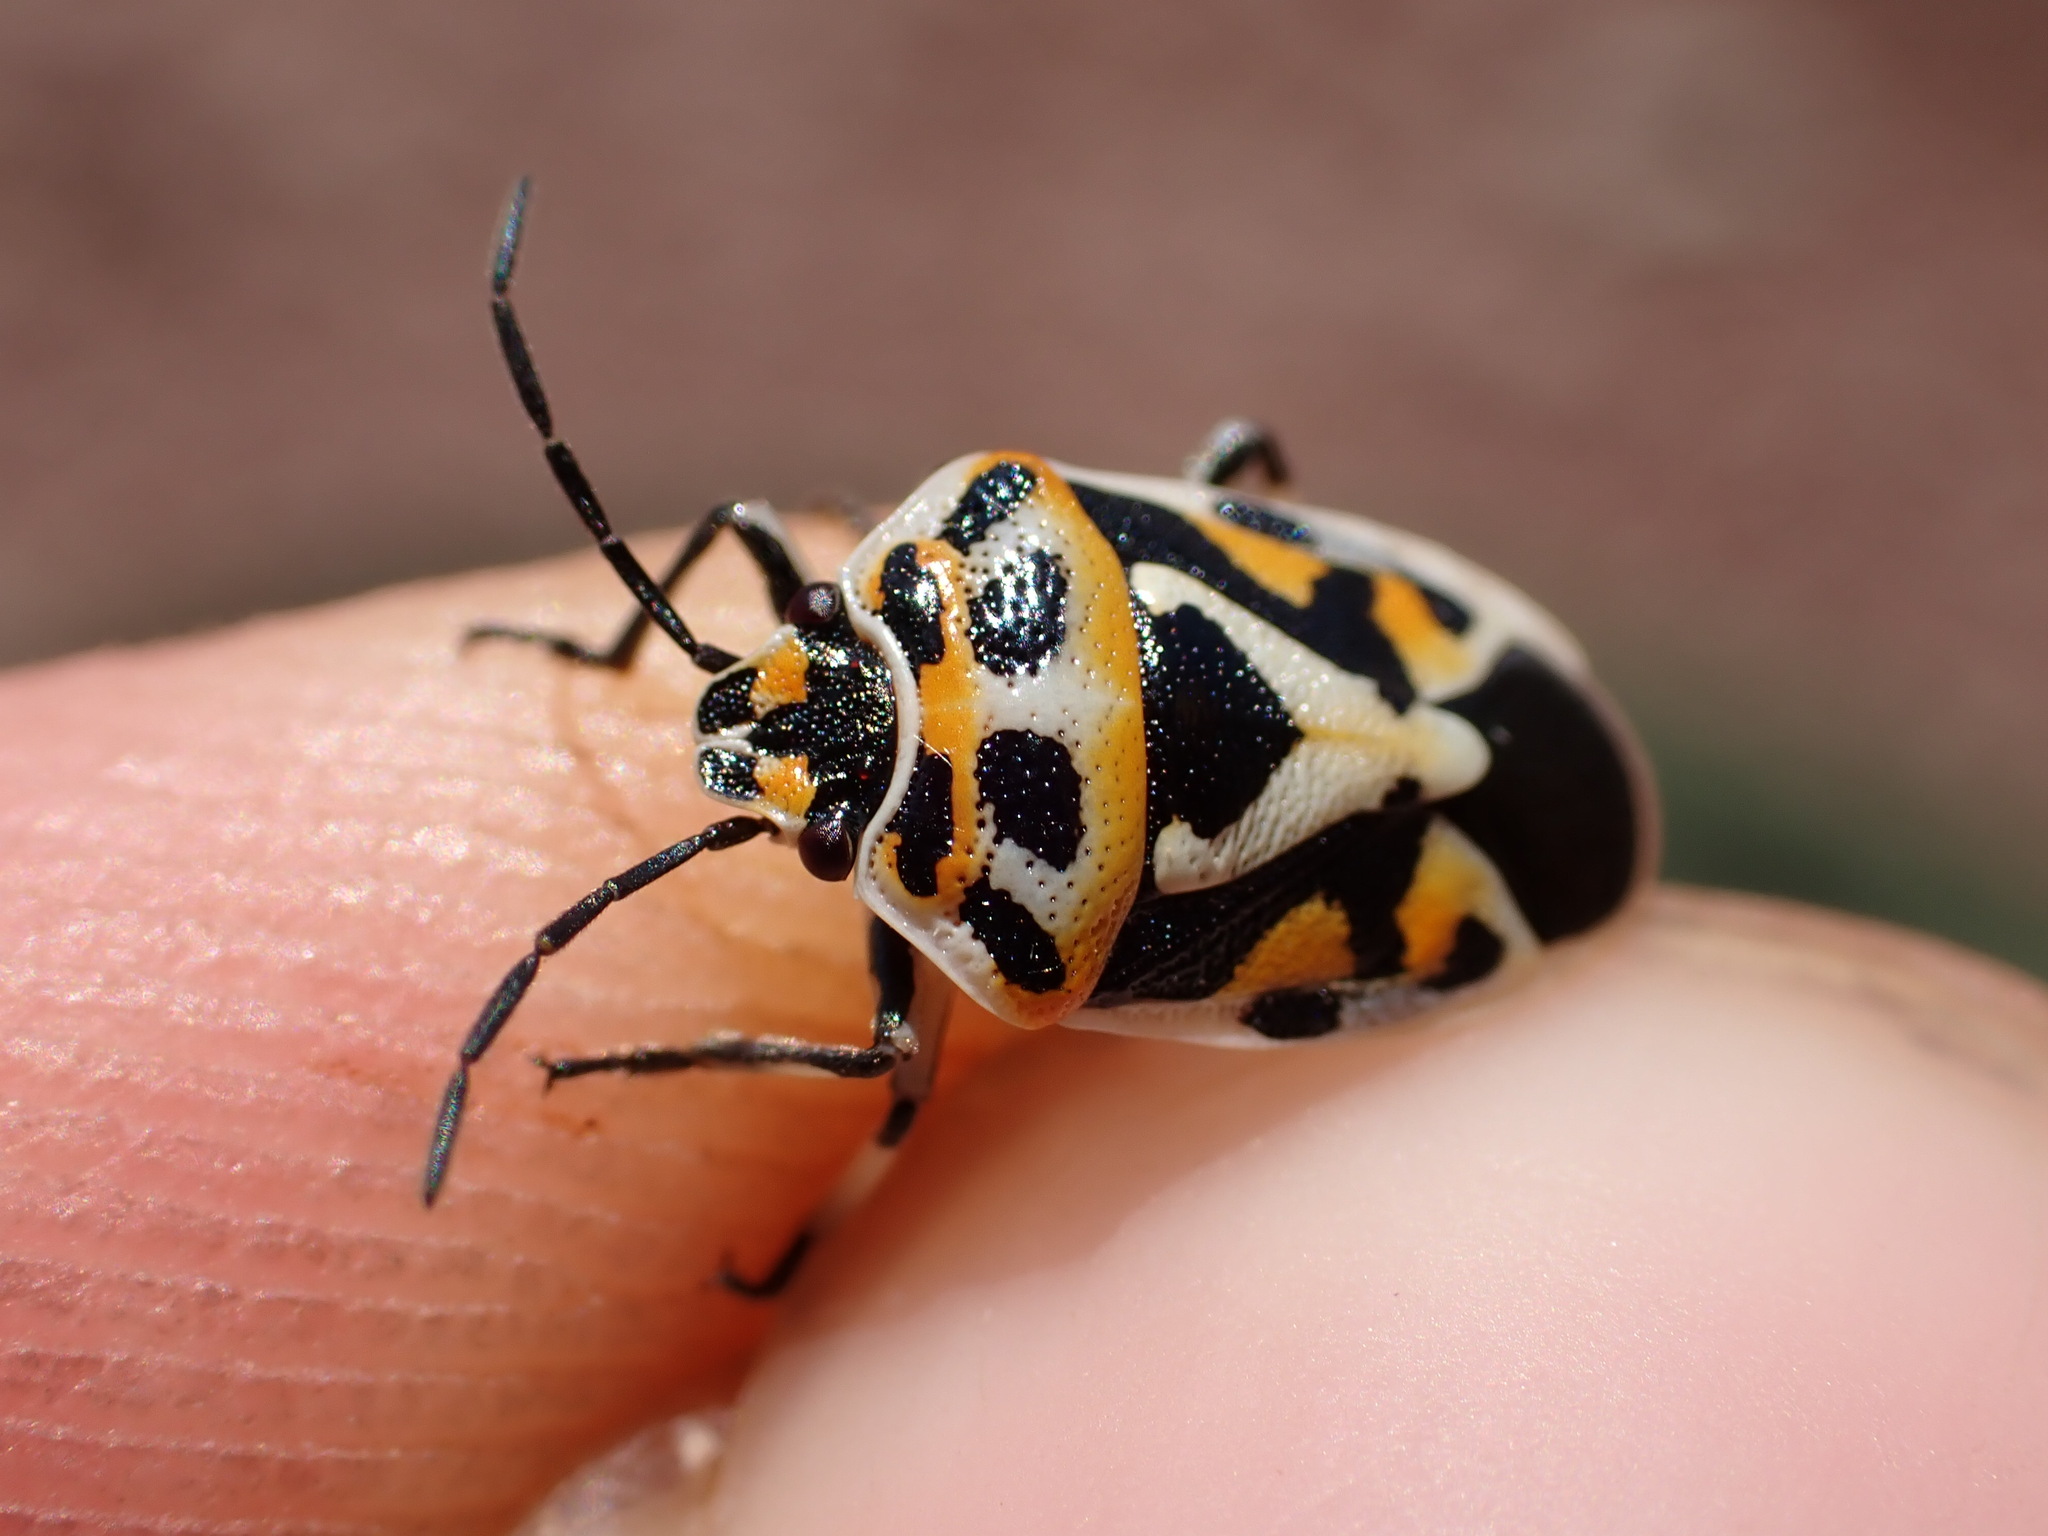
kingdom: Animalia
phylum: Arthropoda
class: Insecta
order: Hemiptera
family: Pentatomidae
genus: Eurydema
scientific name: Eurydema ornata
